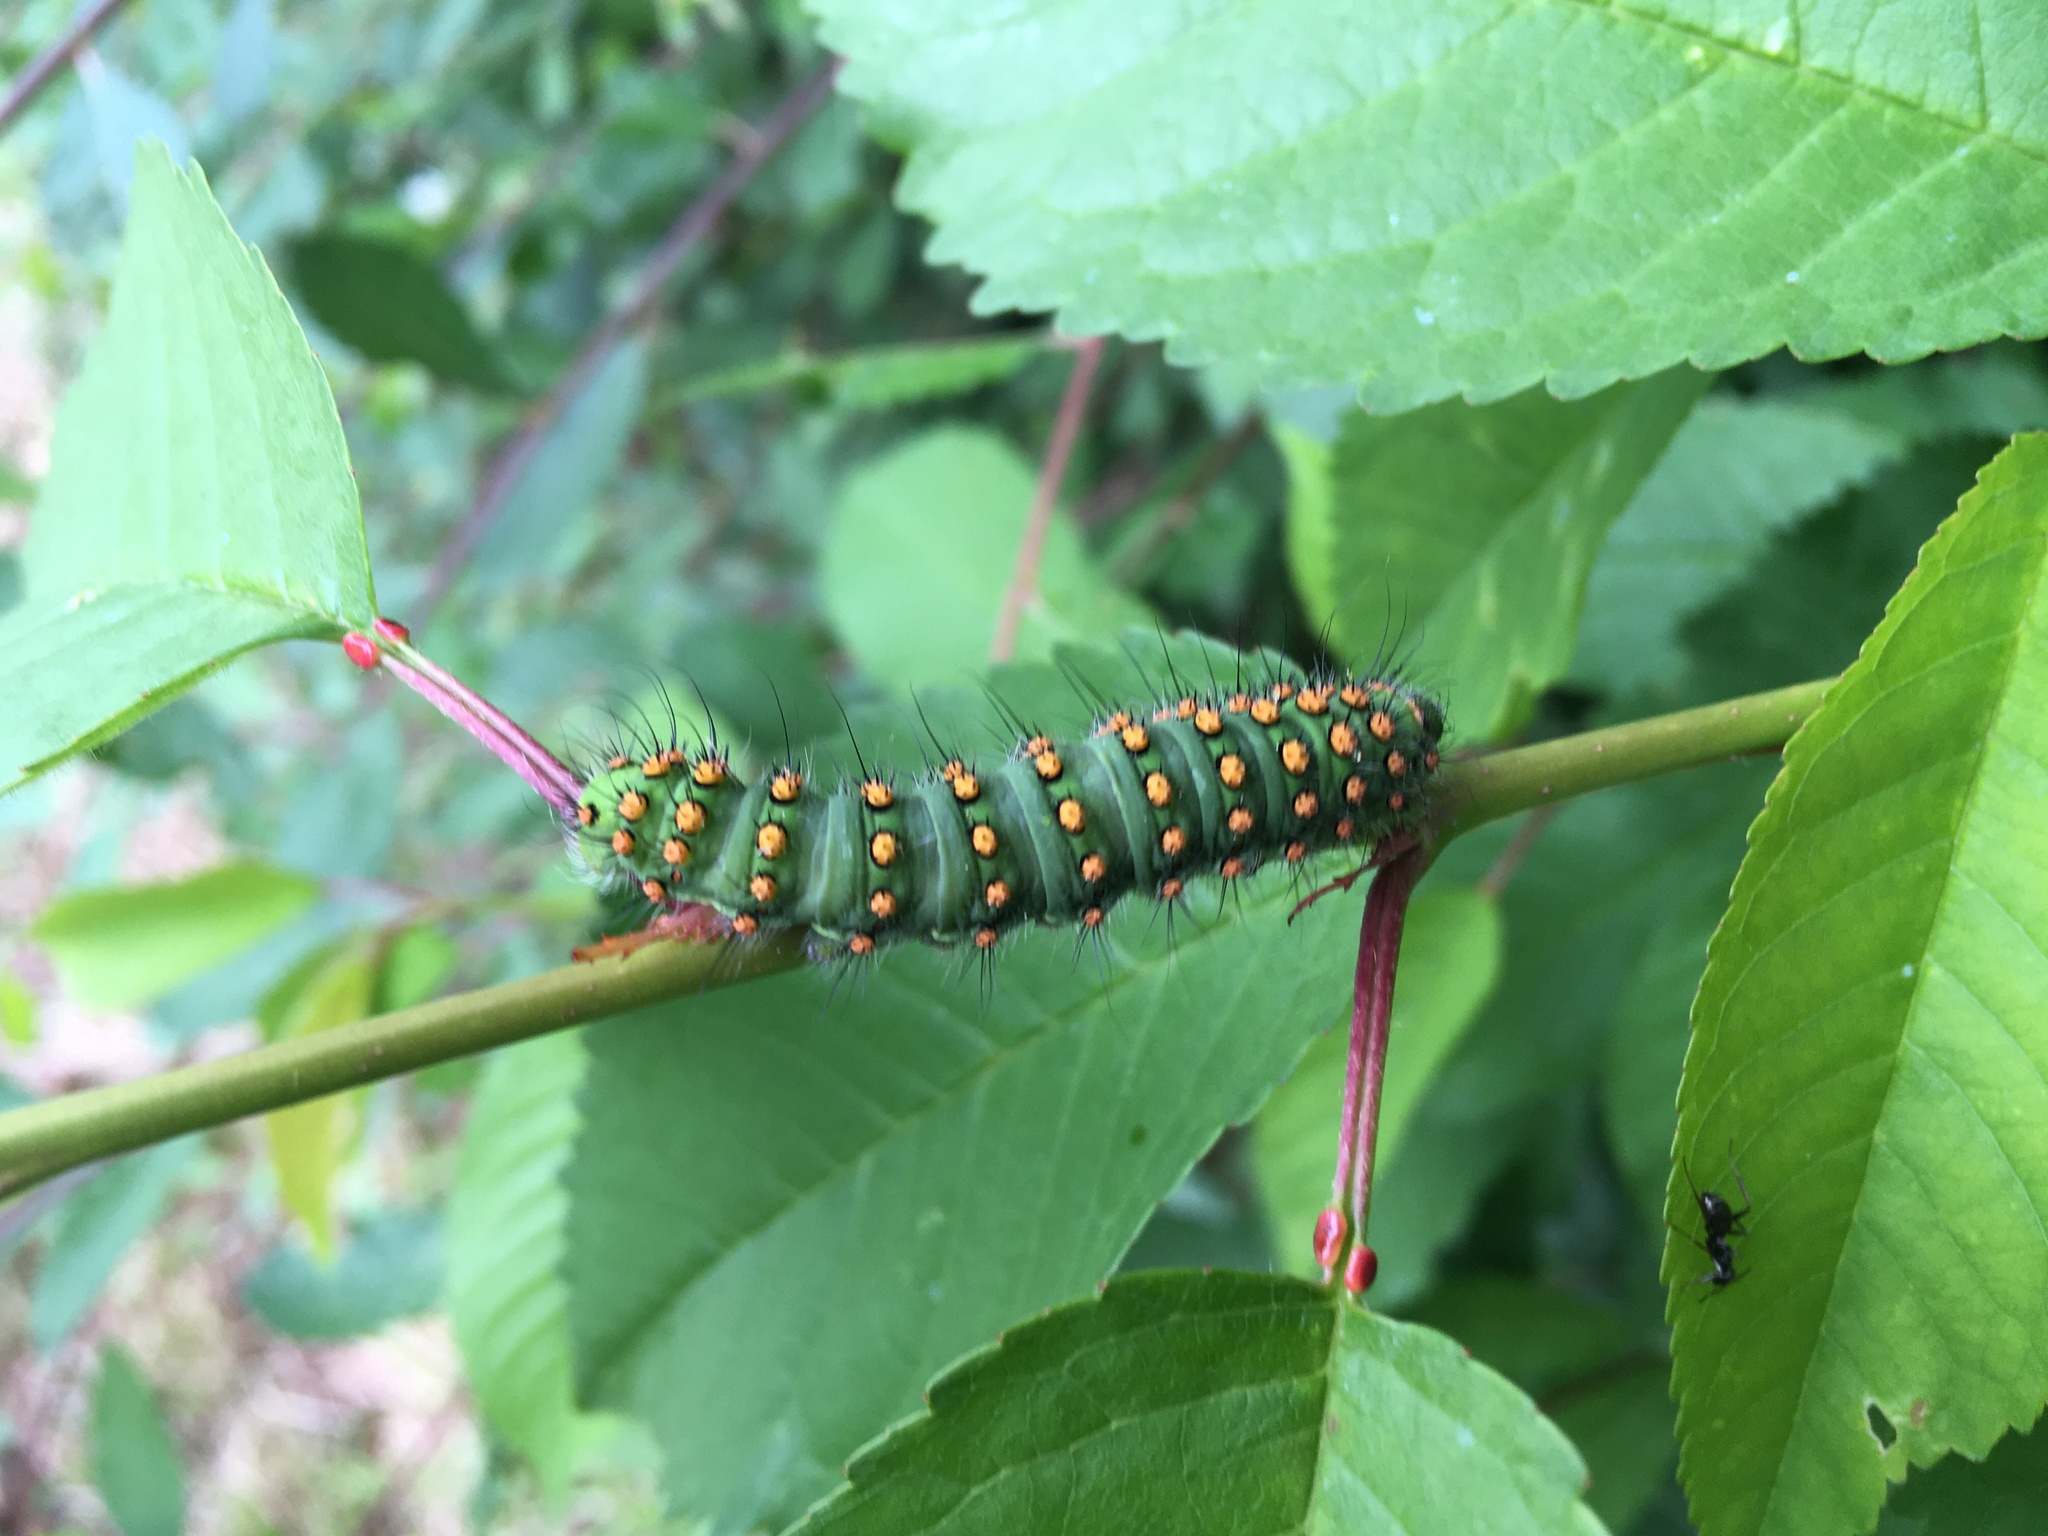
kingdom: Animalia
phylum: Arthropoda
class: Insecta
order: Lepidoptera
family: Saturniidae
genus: Saturnia
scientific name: Saturnia pavonia
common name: Emperor moth
